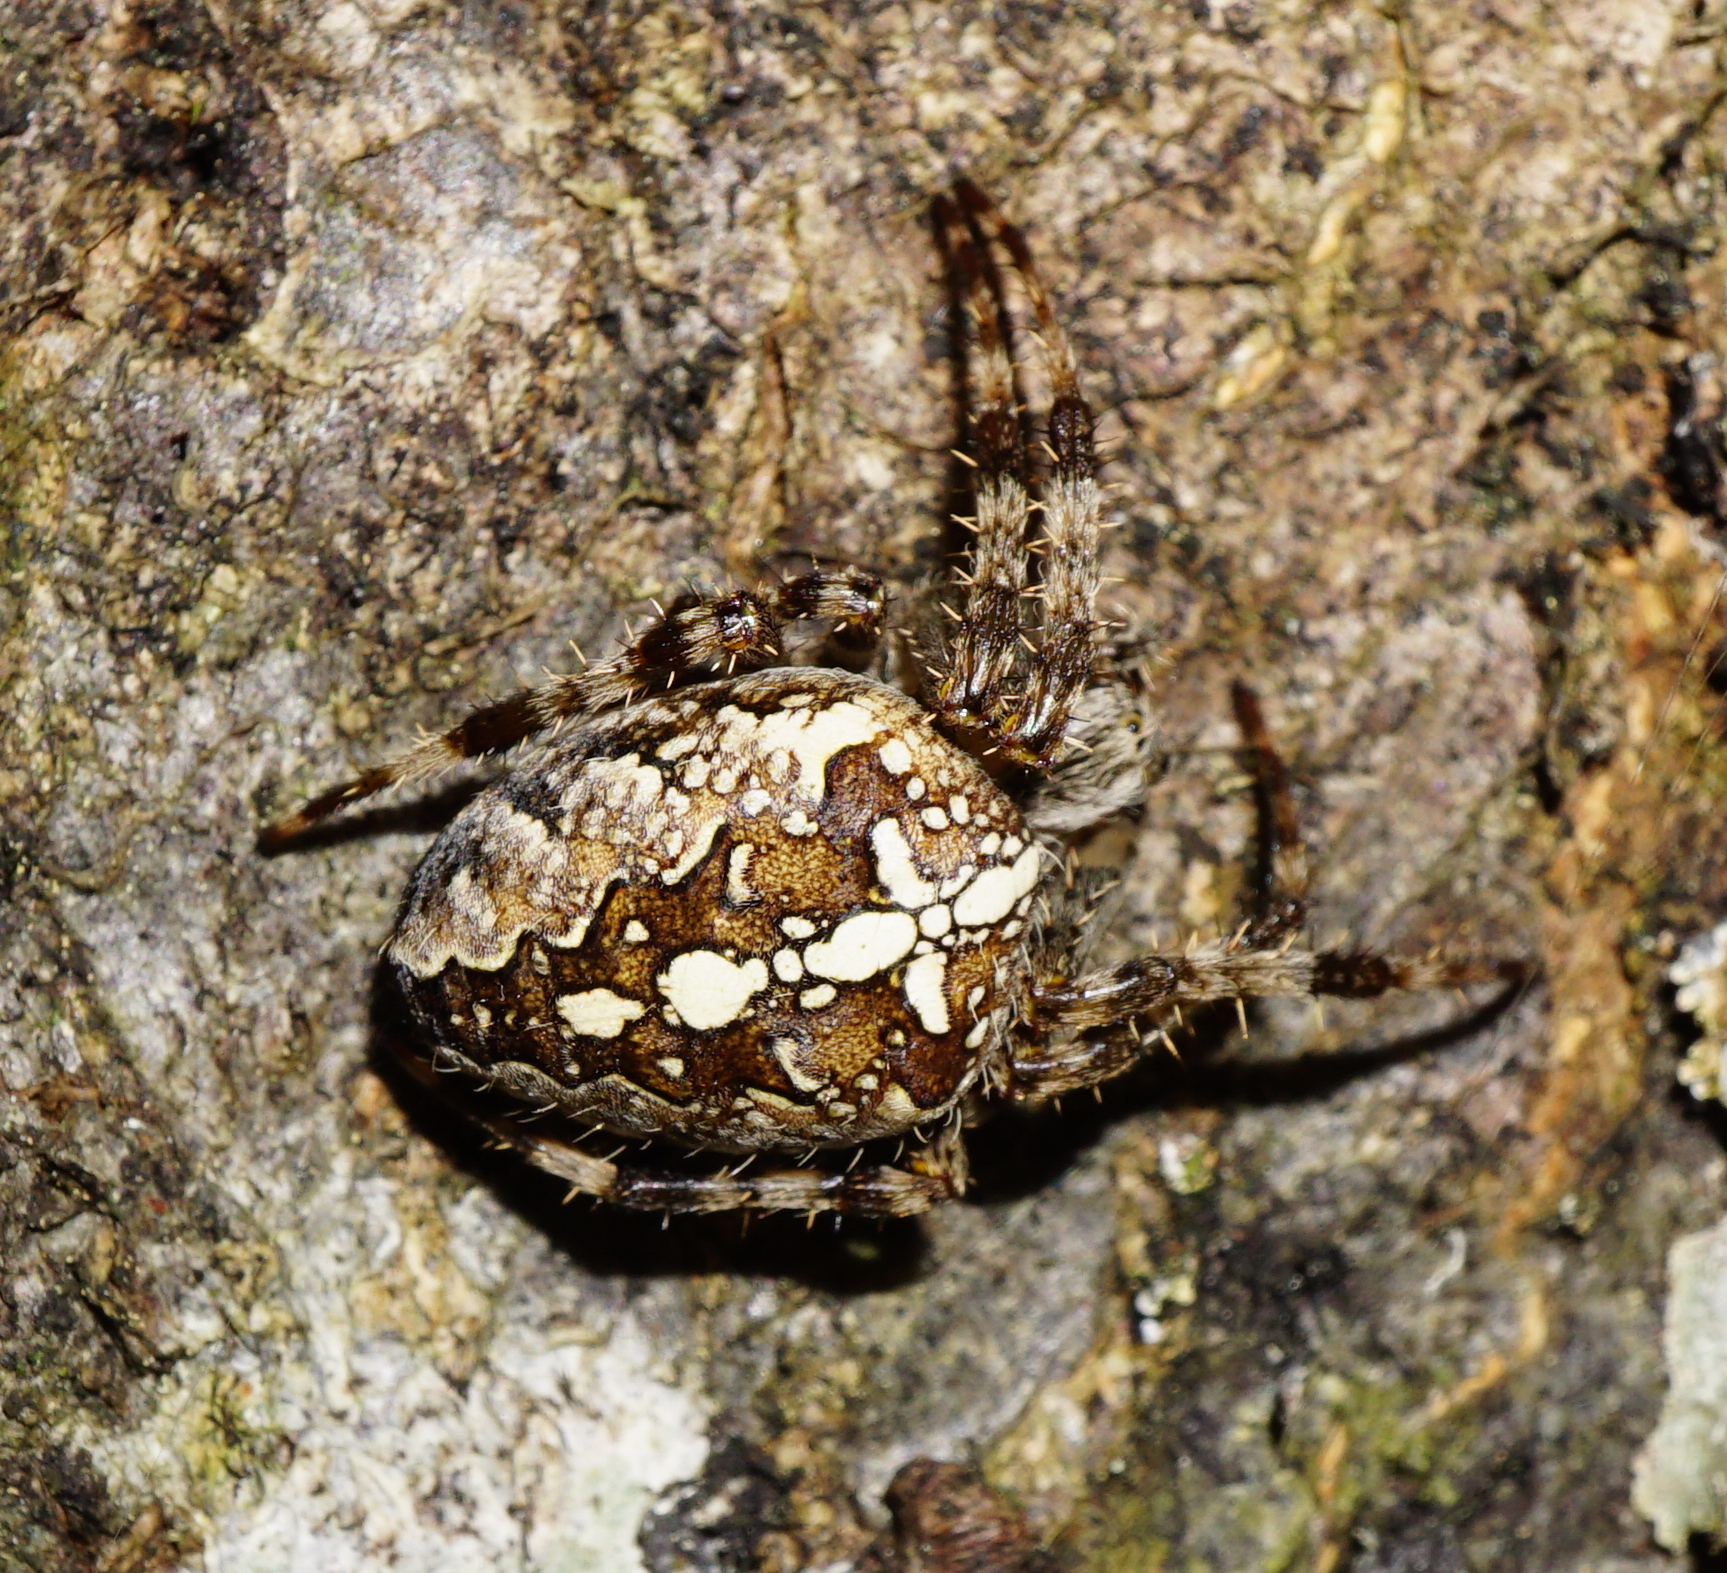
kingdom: Animalia
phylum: Arthropoda
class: Arachnida
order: Araneae
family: Araneidae
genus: Araneus
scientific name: Araneus diadematus
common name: Cross orbweaver
